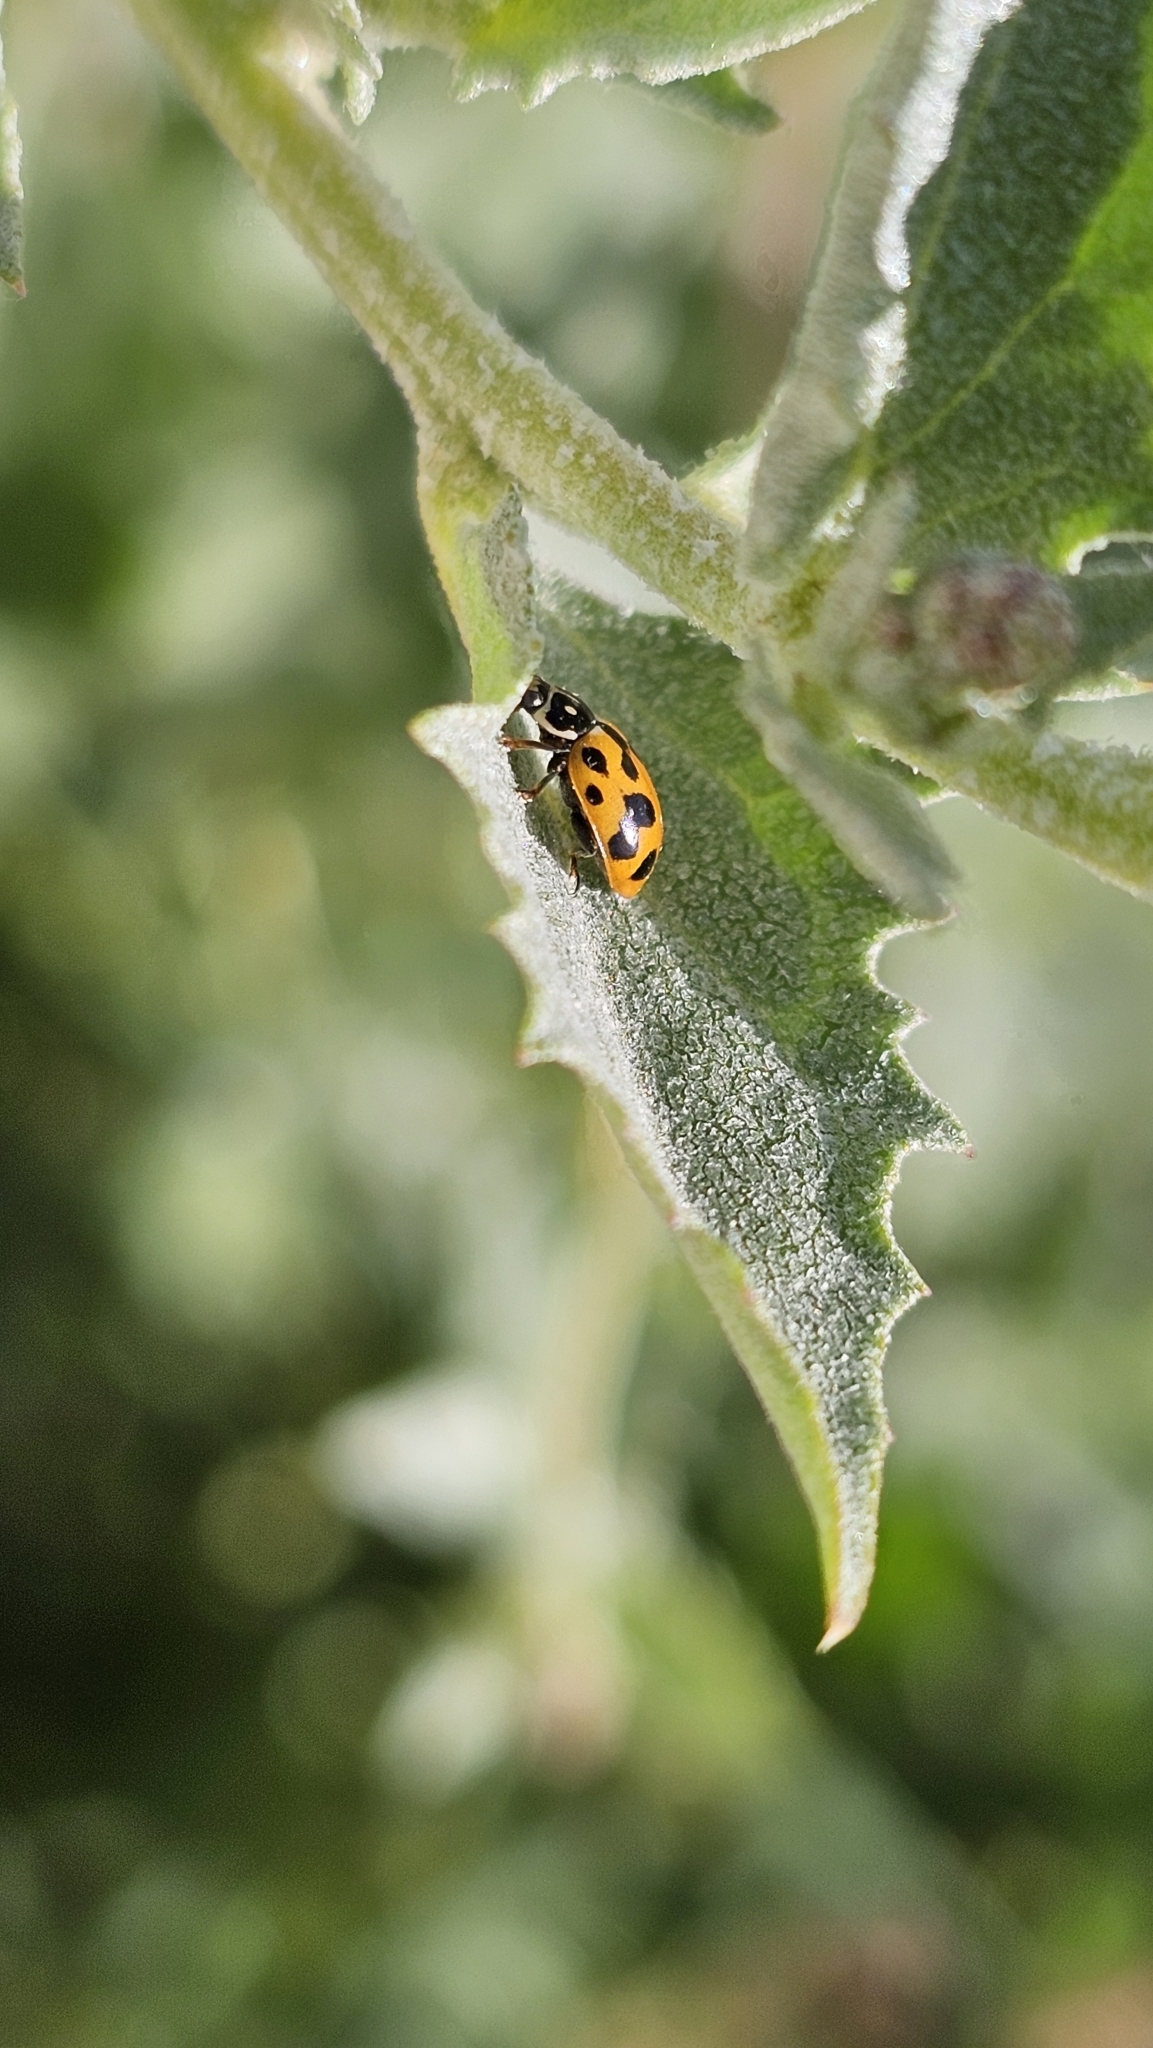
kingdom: Animalia
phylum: Arthropoda
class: Insecta
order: Coleoptera
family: Coccinellidae
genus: Hippodamia
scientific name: Hippodamia variegata
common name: Ladybird beetle
